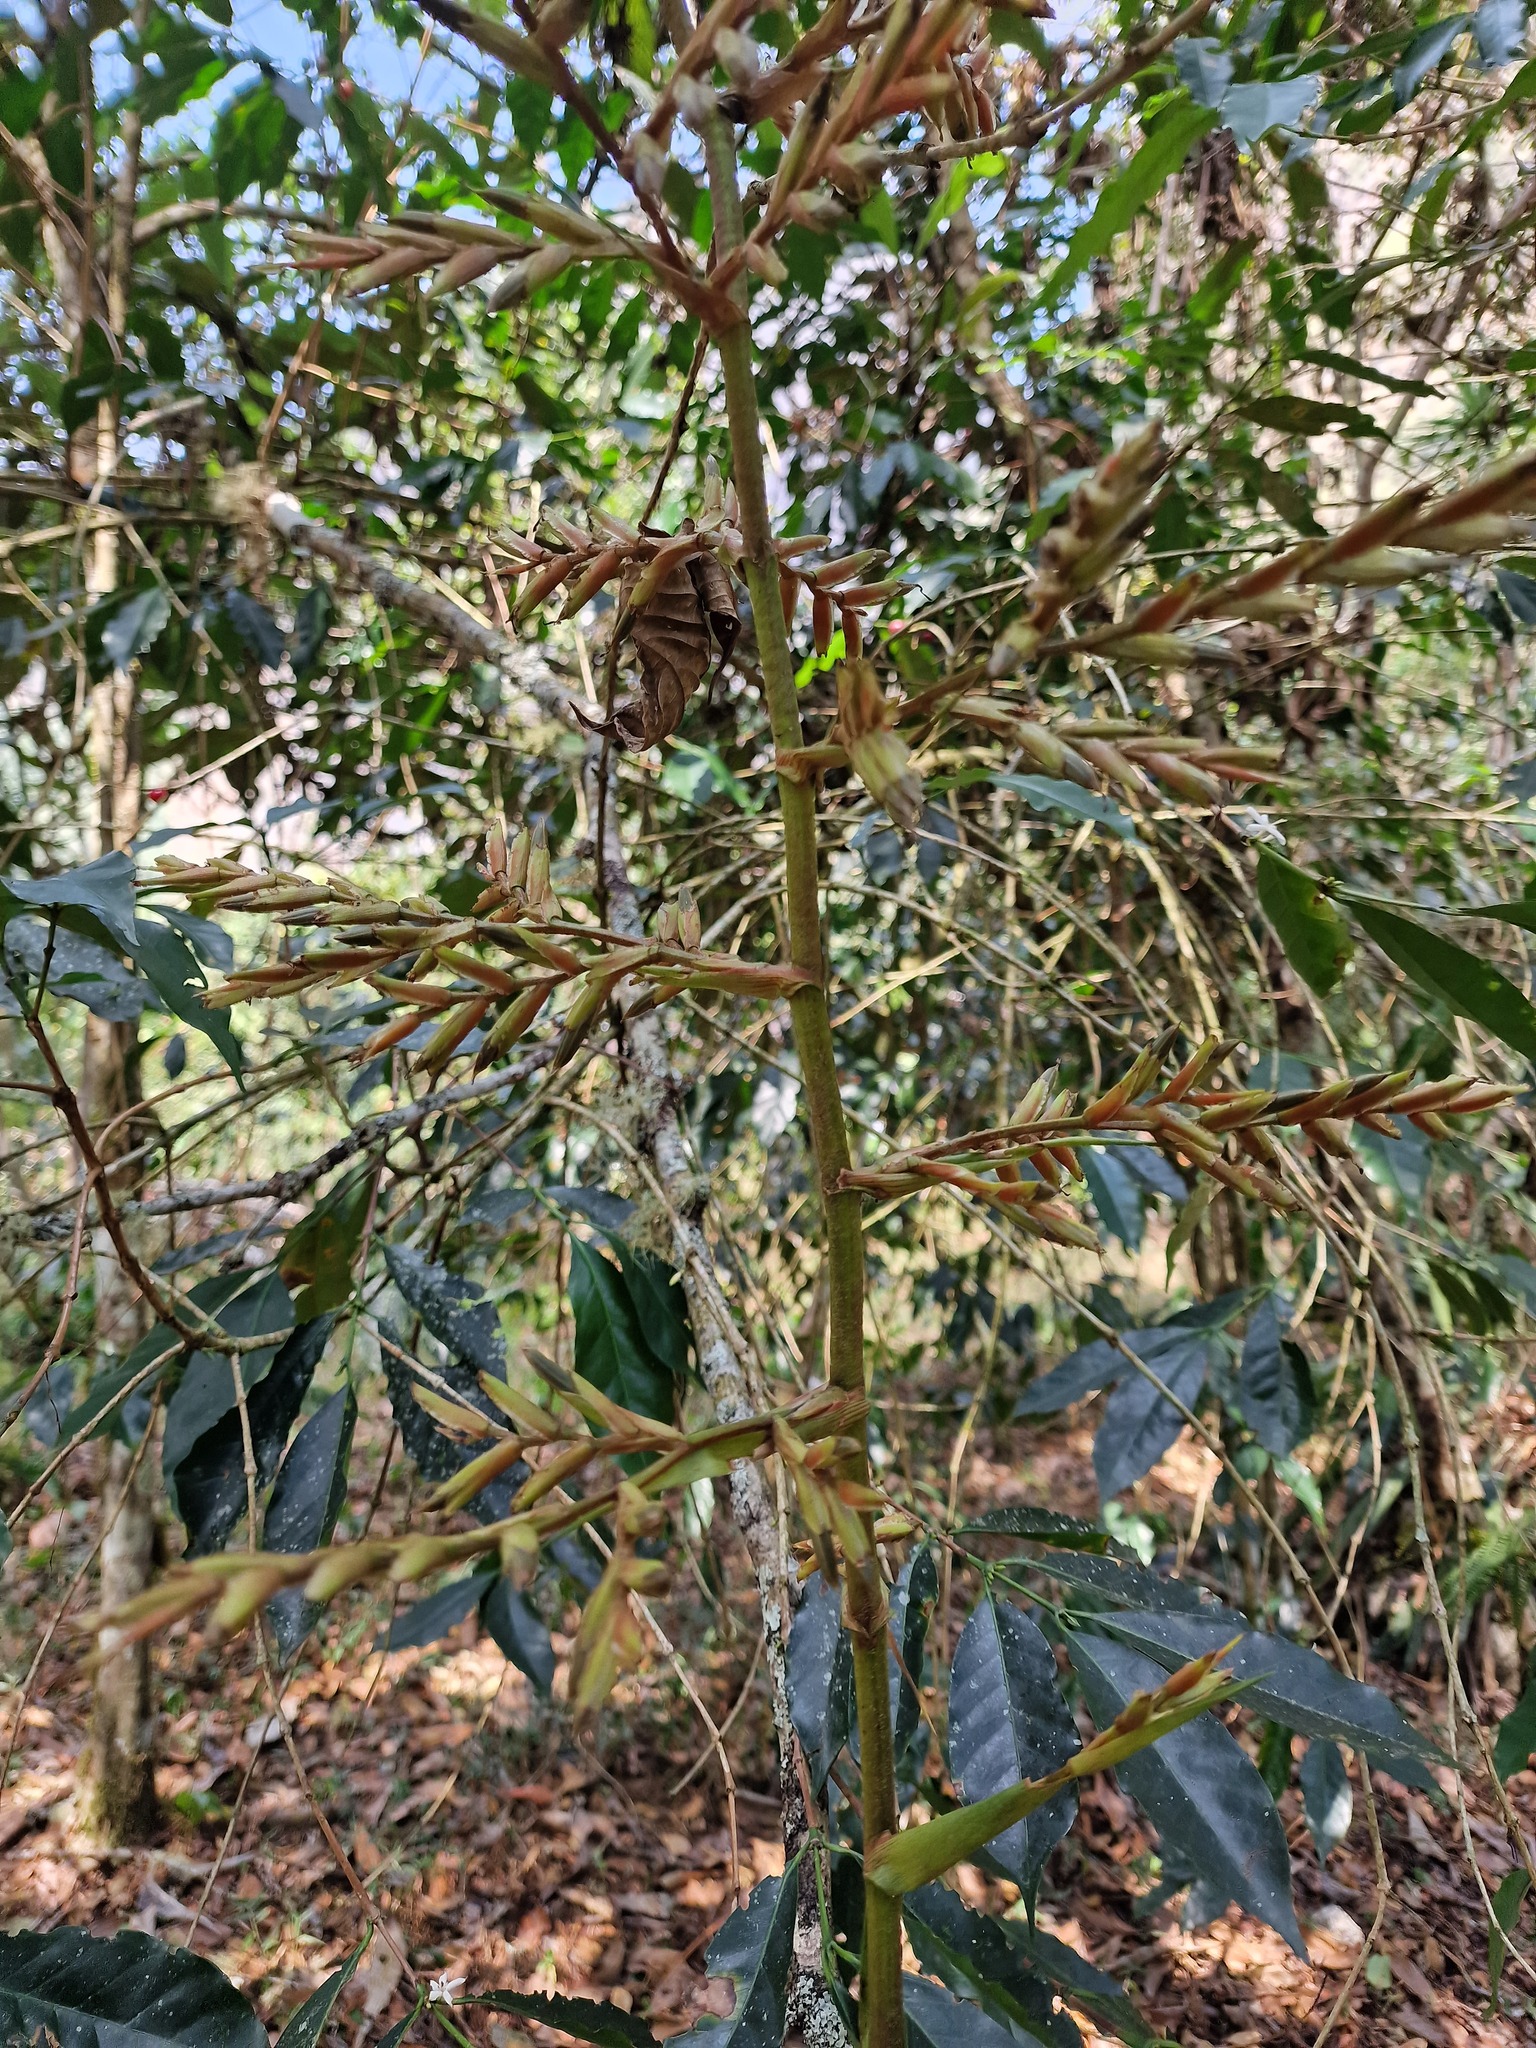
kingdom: Plantae
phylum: Tracheophyta
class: Liliopsida
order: Poales
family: Bromeliaceae
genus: Guzmania
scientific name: Guzmania undulatobracteata
